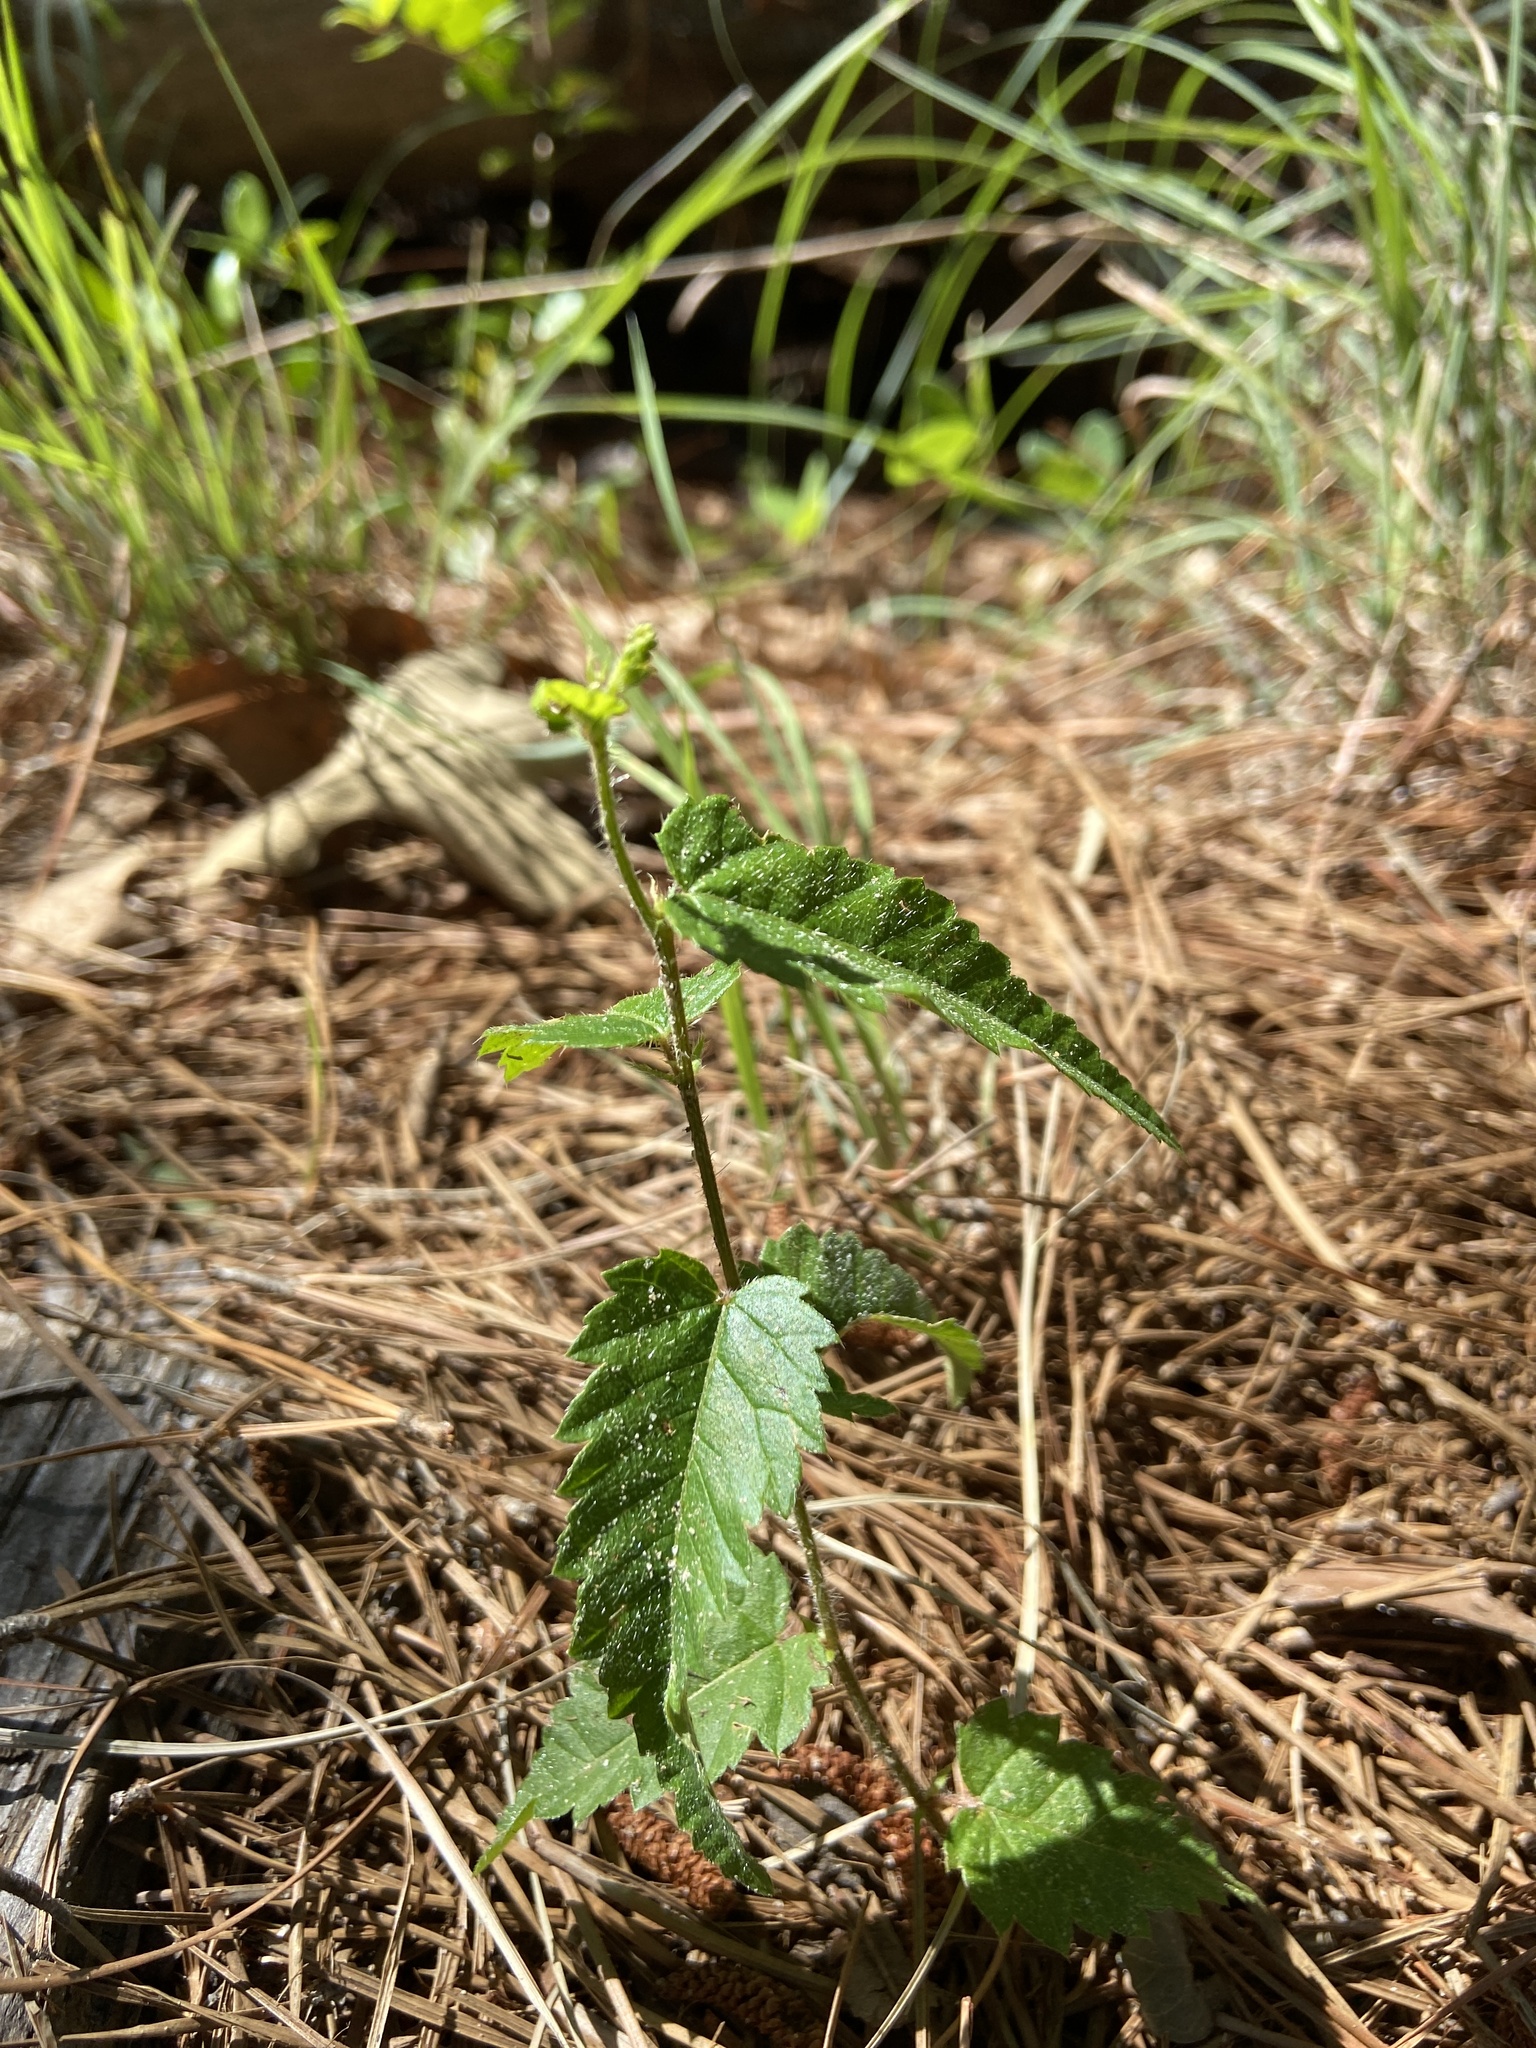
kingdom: Plantae
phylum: Tracheophyta
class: Magnoliopsida
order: Malpighiales
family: Euphorbiaceae
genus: Tragia
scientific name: Tragia urticifolia
